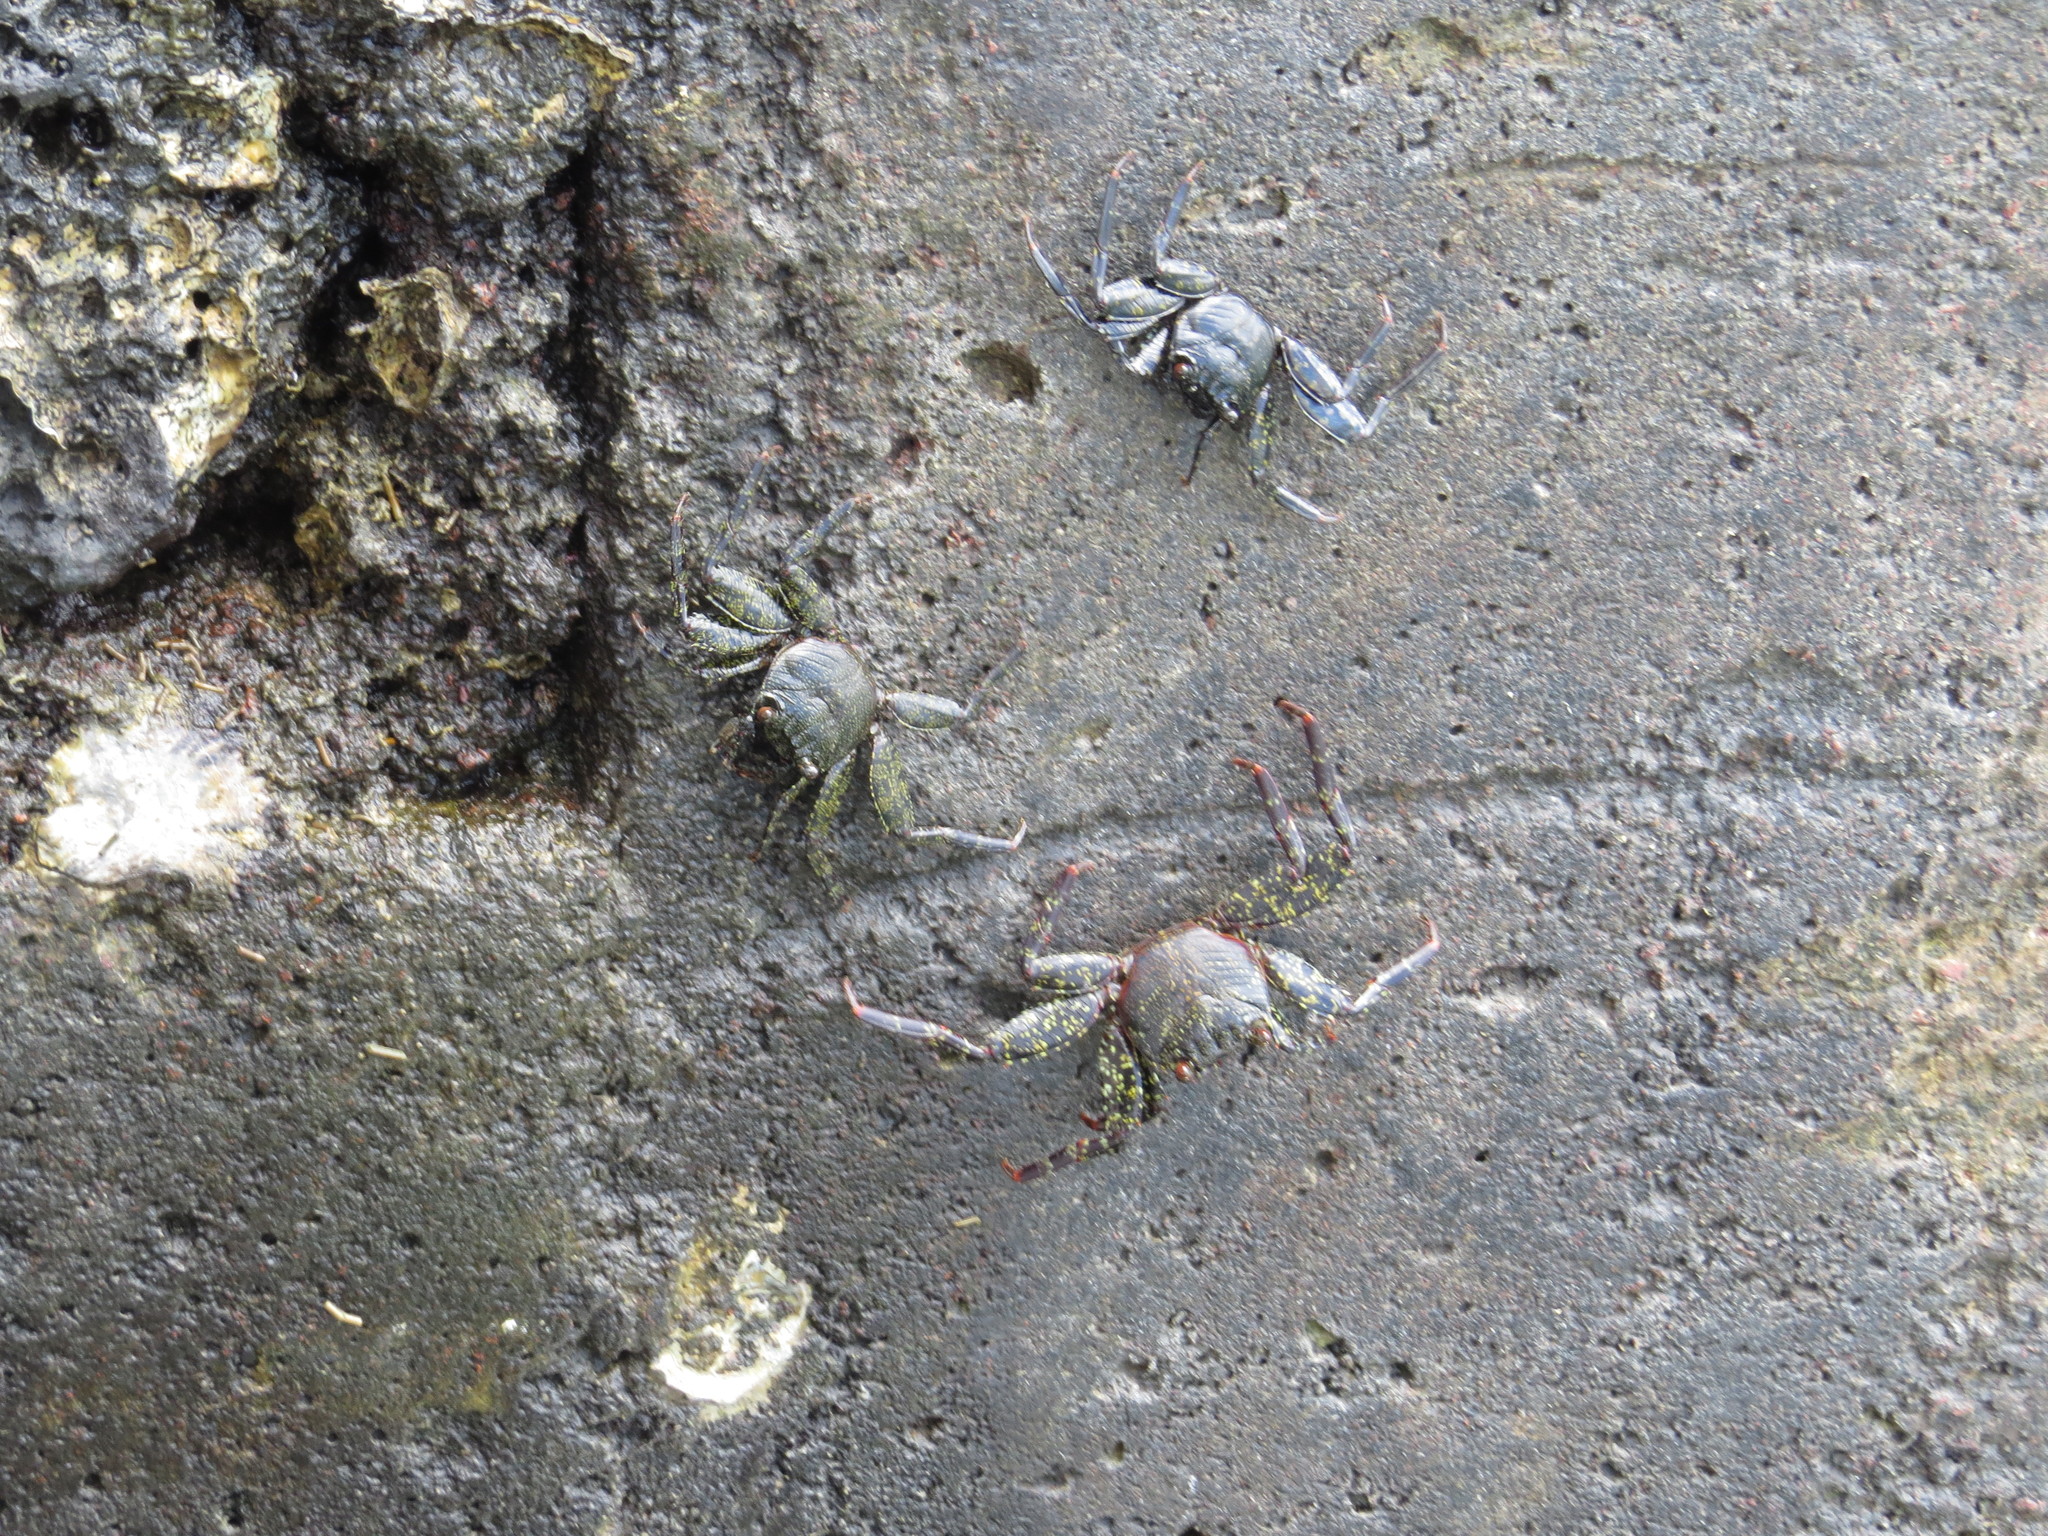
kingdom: Animalia
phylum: Arthropoda
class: Malacostraca
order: Decapoda
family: Grapsidae
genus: Grapsus
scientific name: Grapsus grapsus
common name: Sally lightfoot
